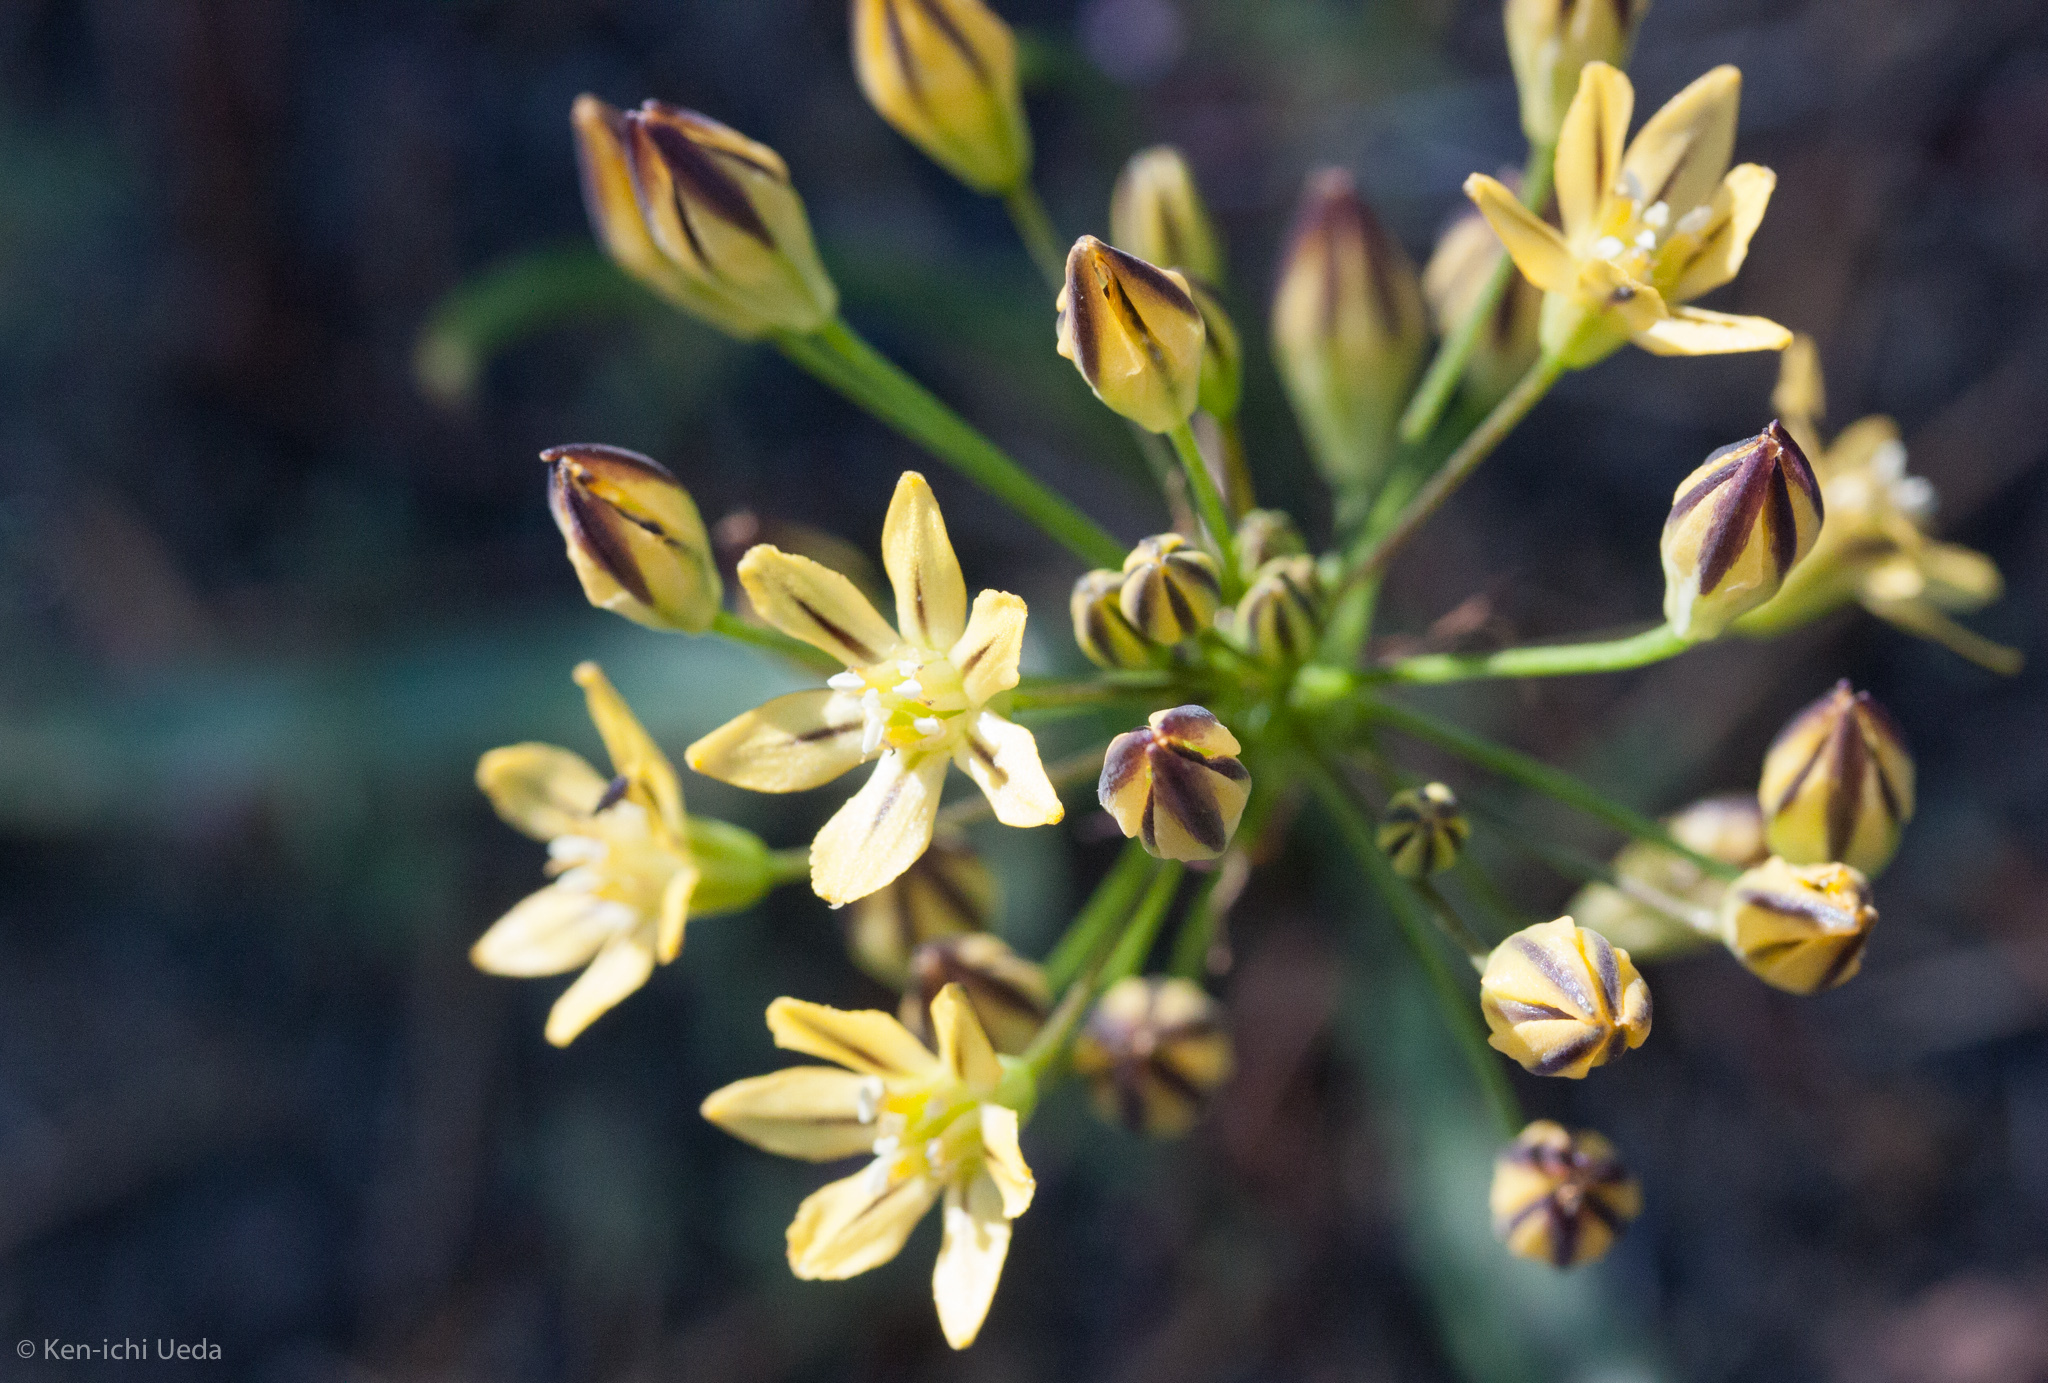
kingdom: Plantae
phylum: Tracheophyta
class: Liliopsida
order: Asparagales
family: Asparagaceae
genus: Triteleia
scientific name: Triteleia ixioides
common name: Yellow-brodiaea
